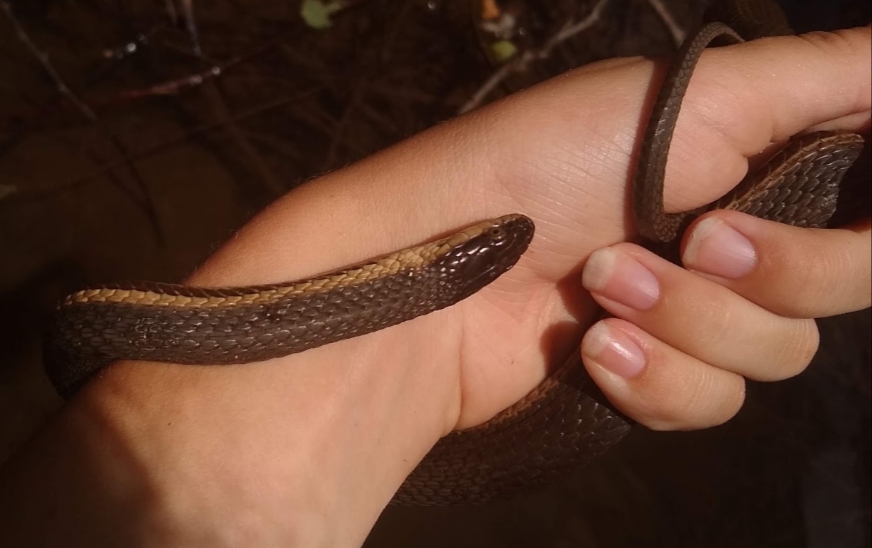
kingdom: Animalia
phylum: Chordata
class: Squamata
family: Colubridae
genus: Regina
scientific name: Regina septemvittata
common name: Queen snake
